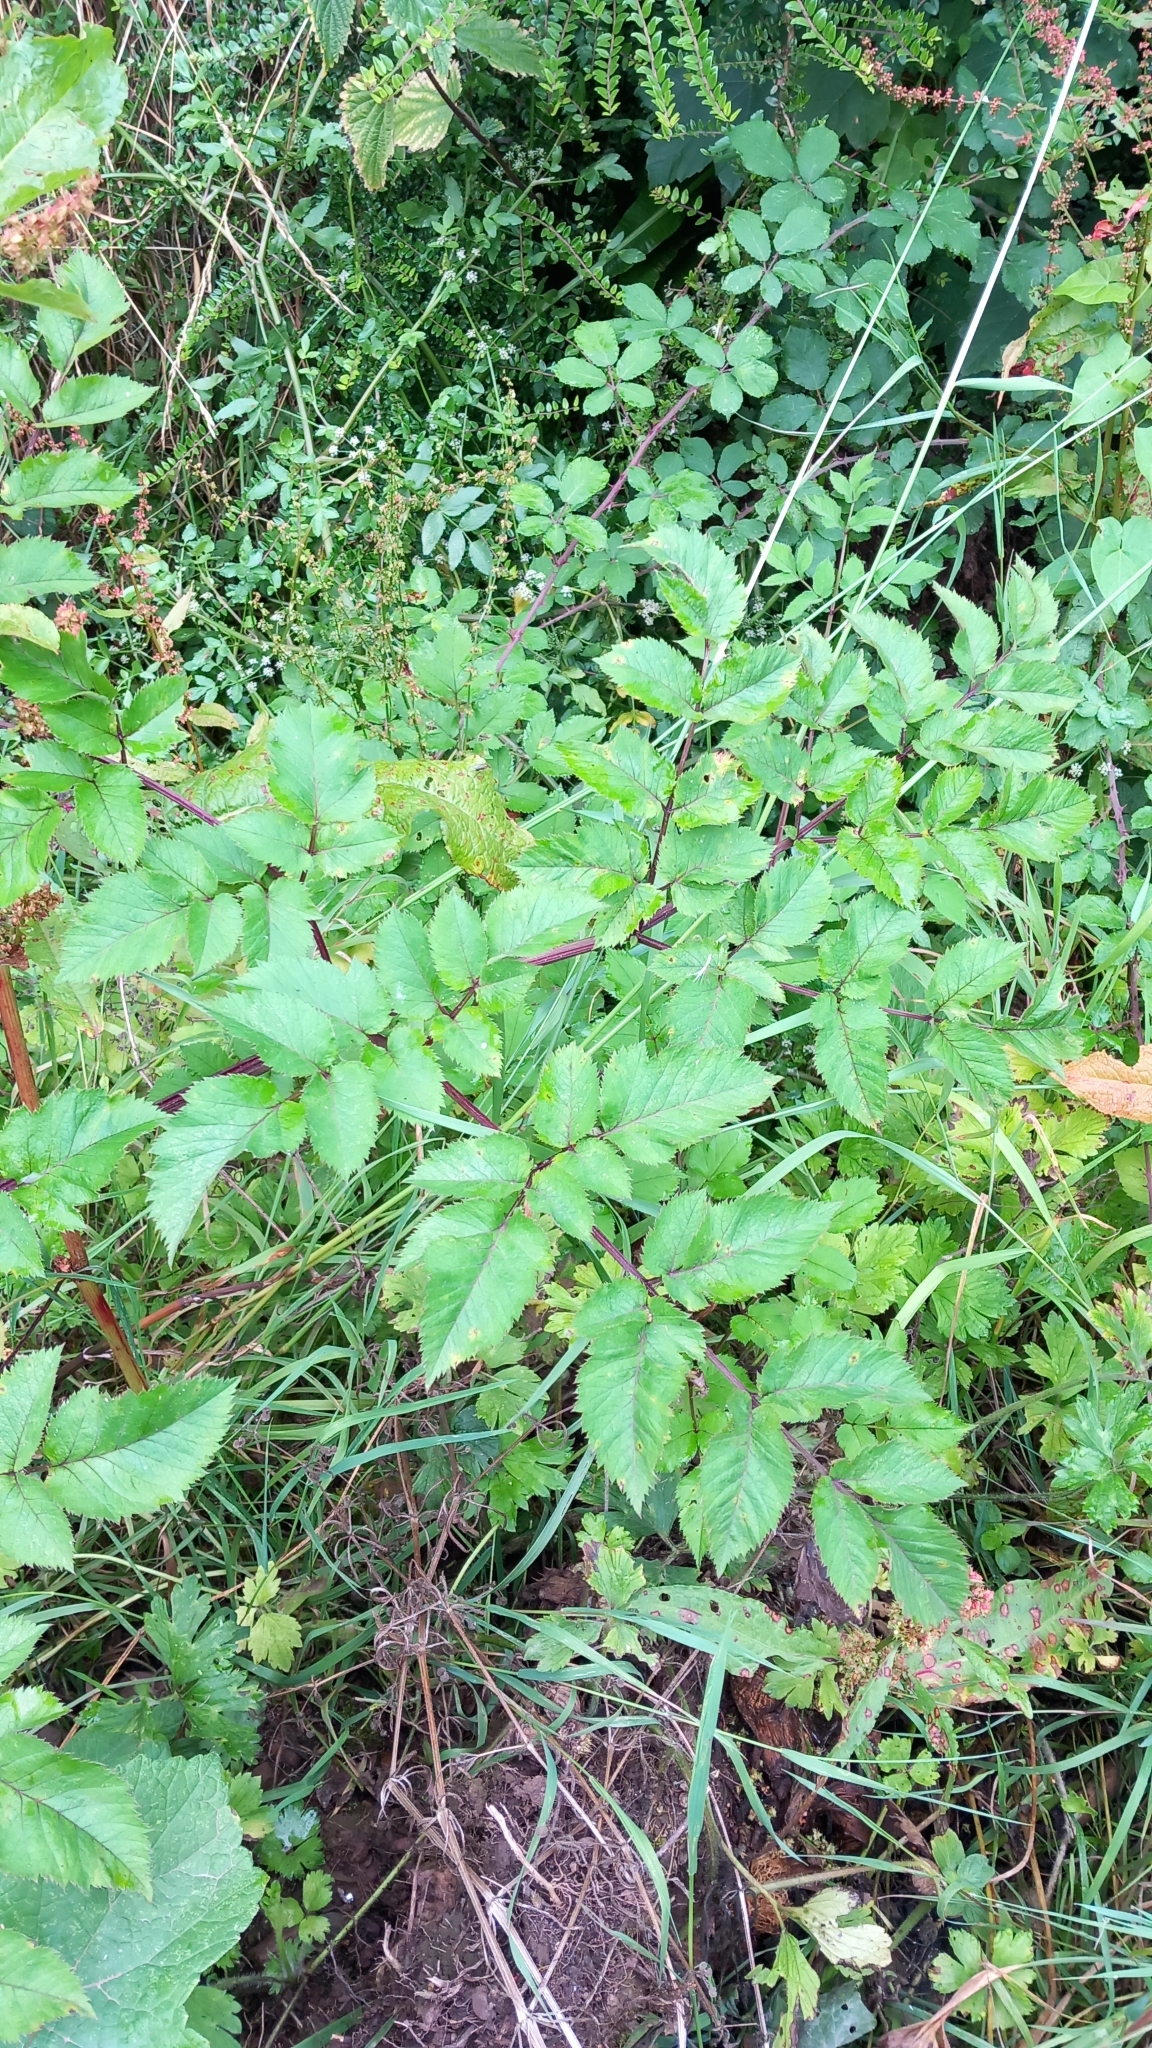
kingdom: Plantae
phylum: Tracheophyta
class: Magnoliopsida
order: Apiales
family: Apiaceae
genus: Angelica
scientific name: Angelica sylvestris
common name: Wild angelica
